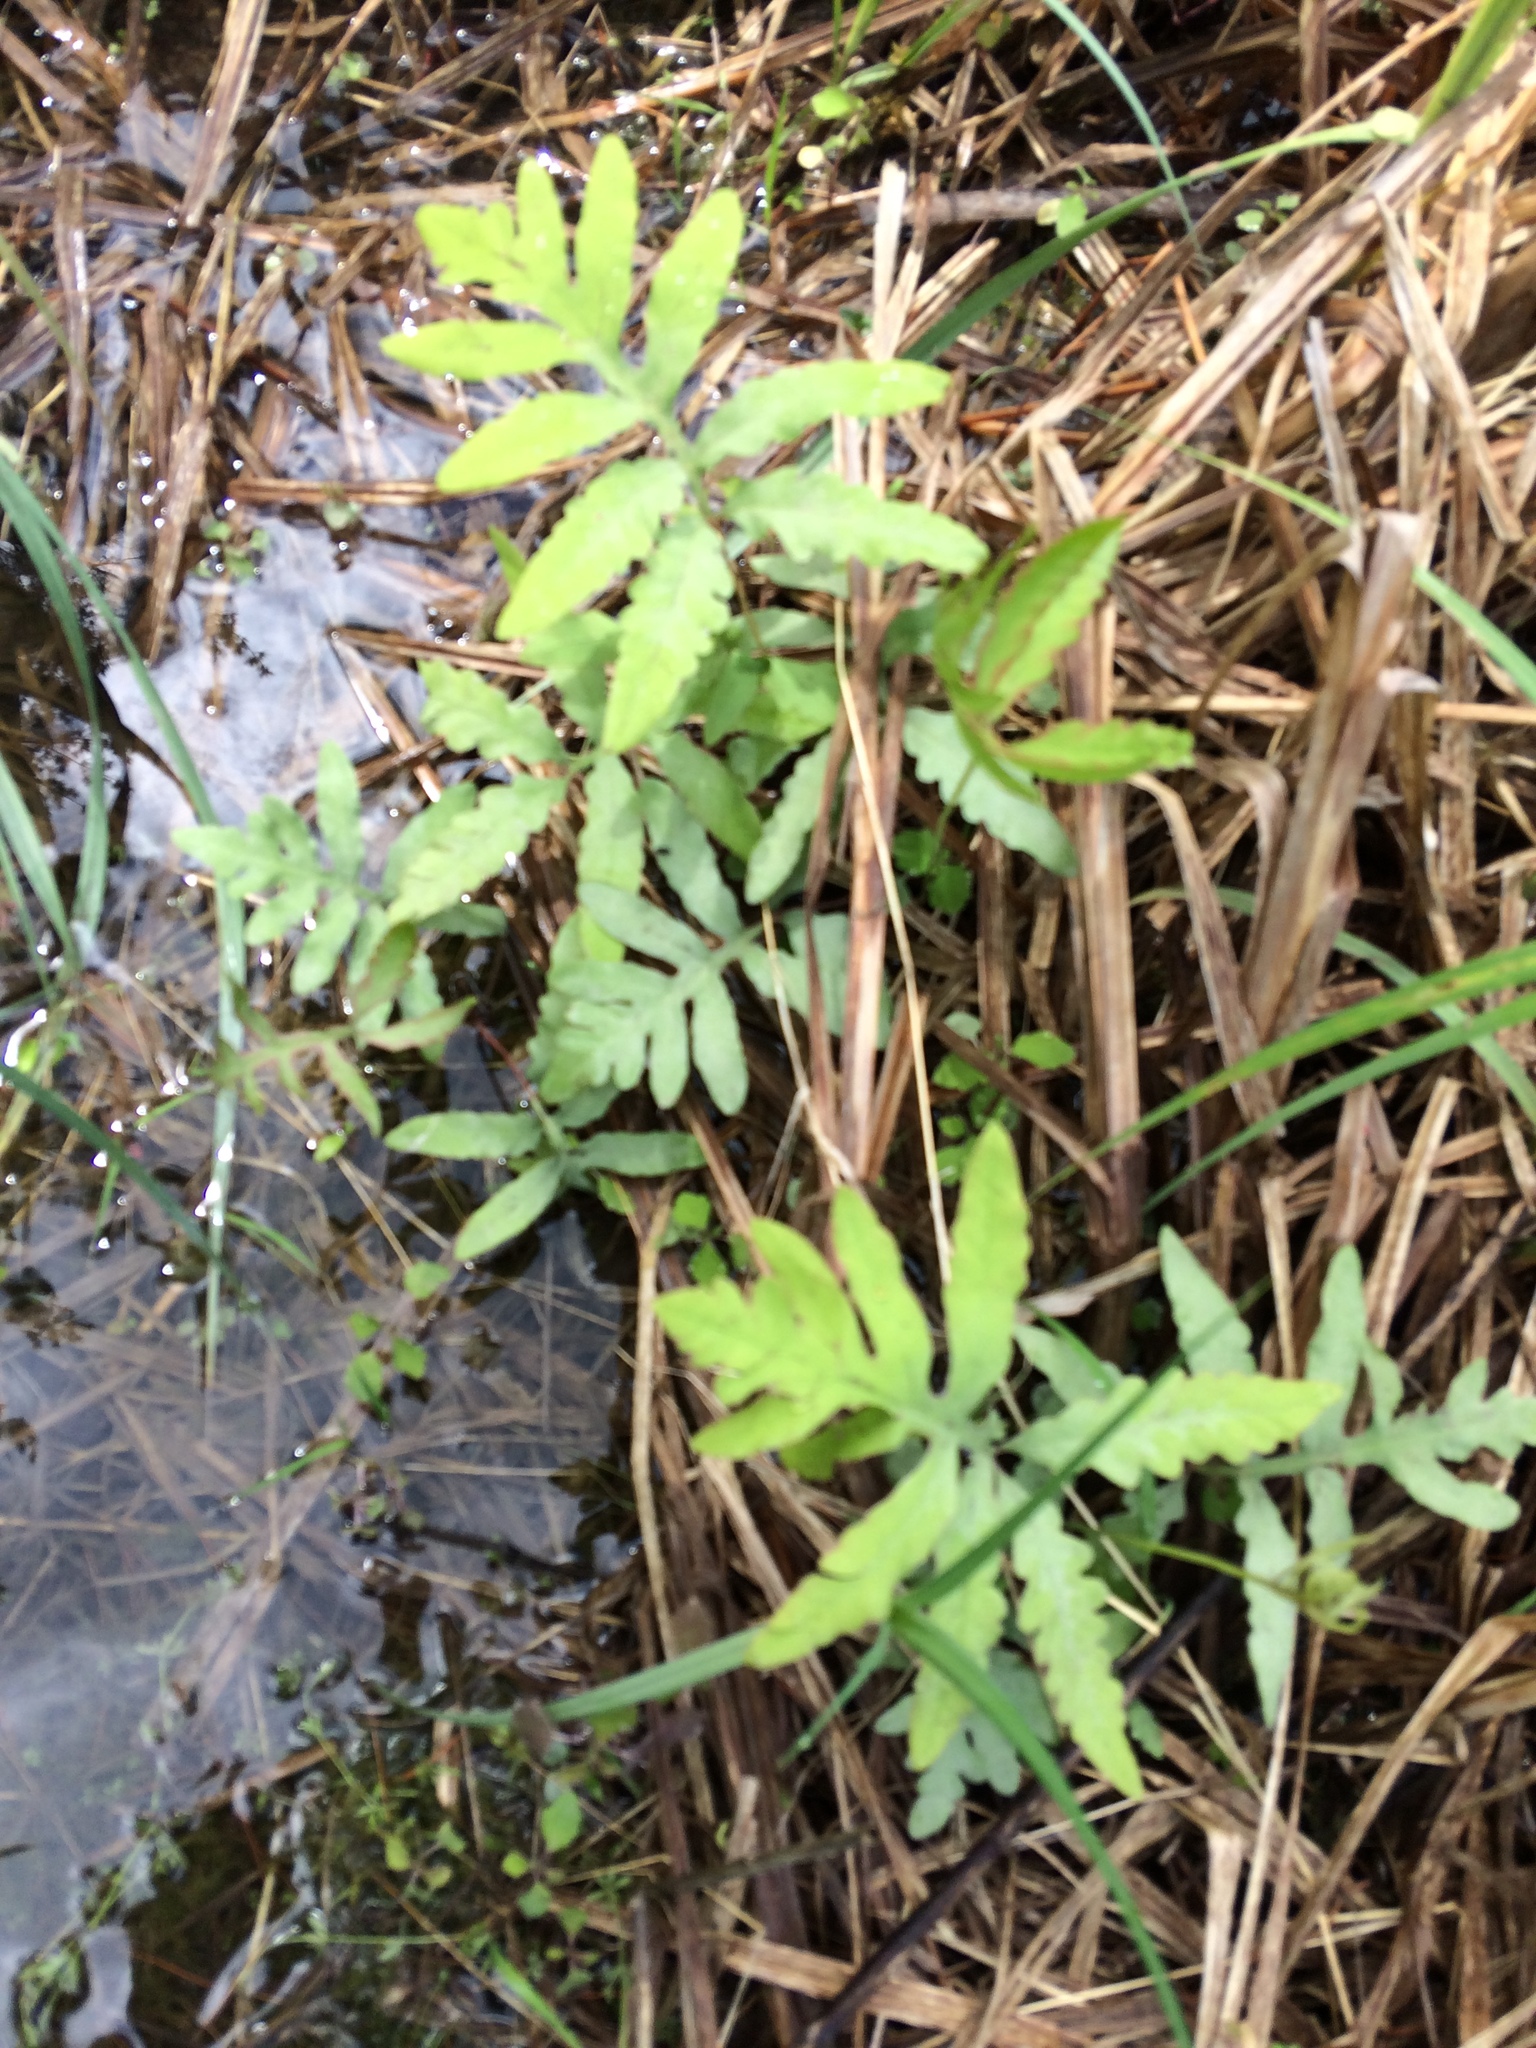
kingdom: Plantae
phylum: Tracheophyta
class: Polypodiopsida
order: Polypodiales
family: Onocleaceae
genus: Onoclea
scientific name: Onoclea sensibilis
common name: Sensitive fern
